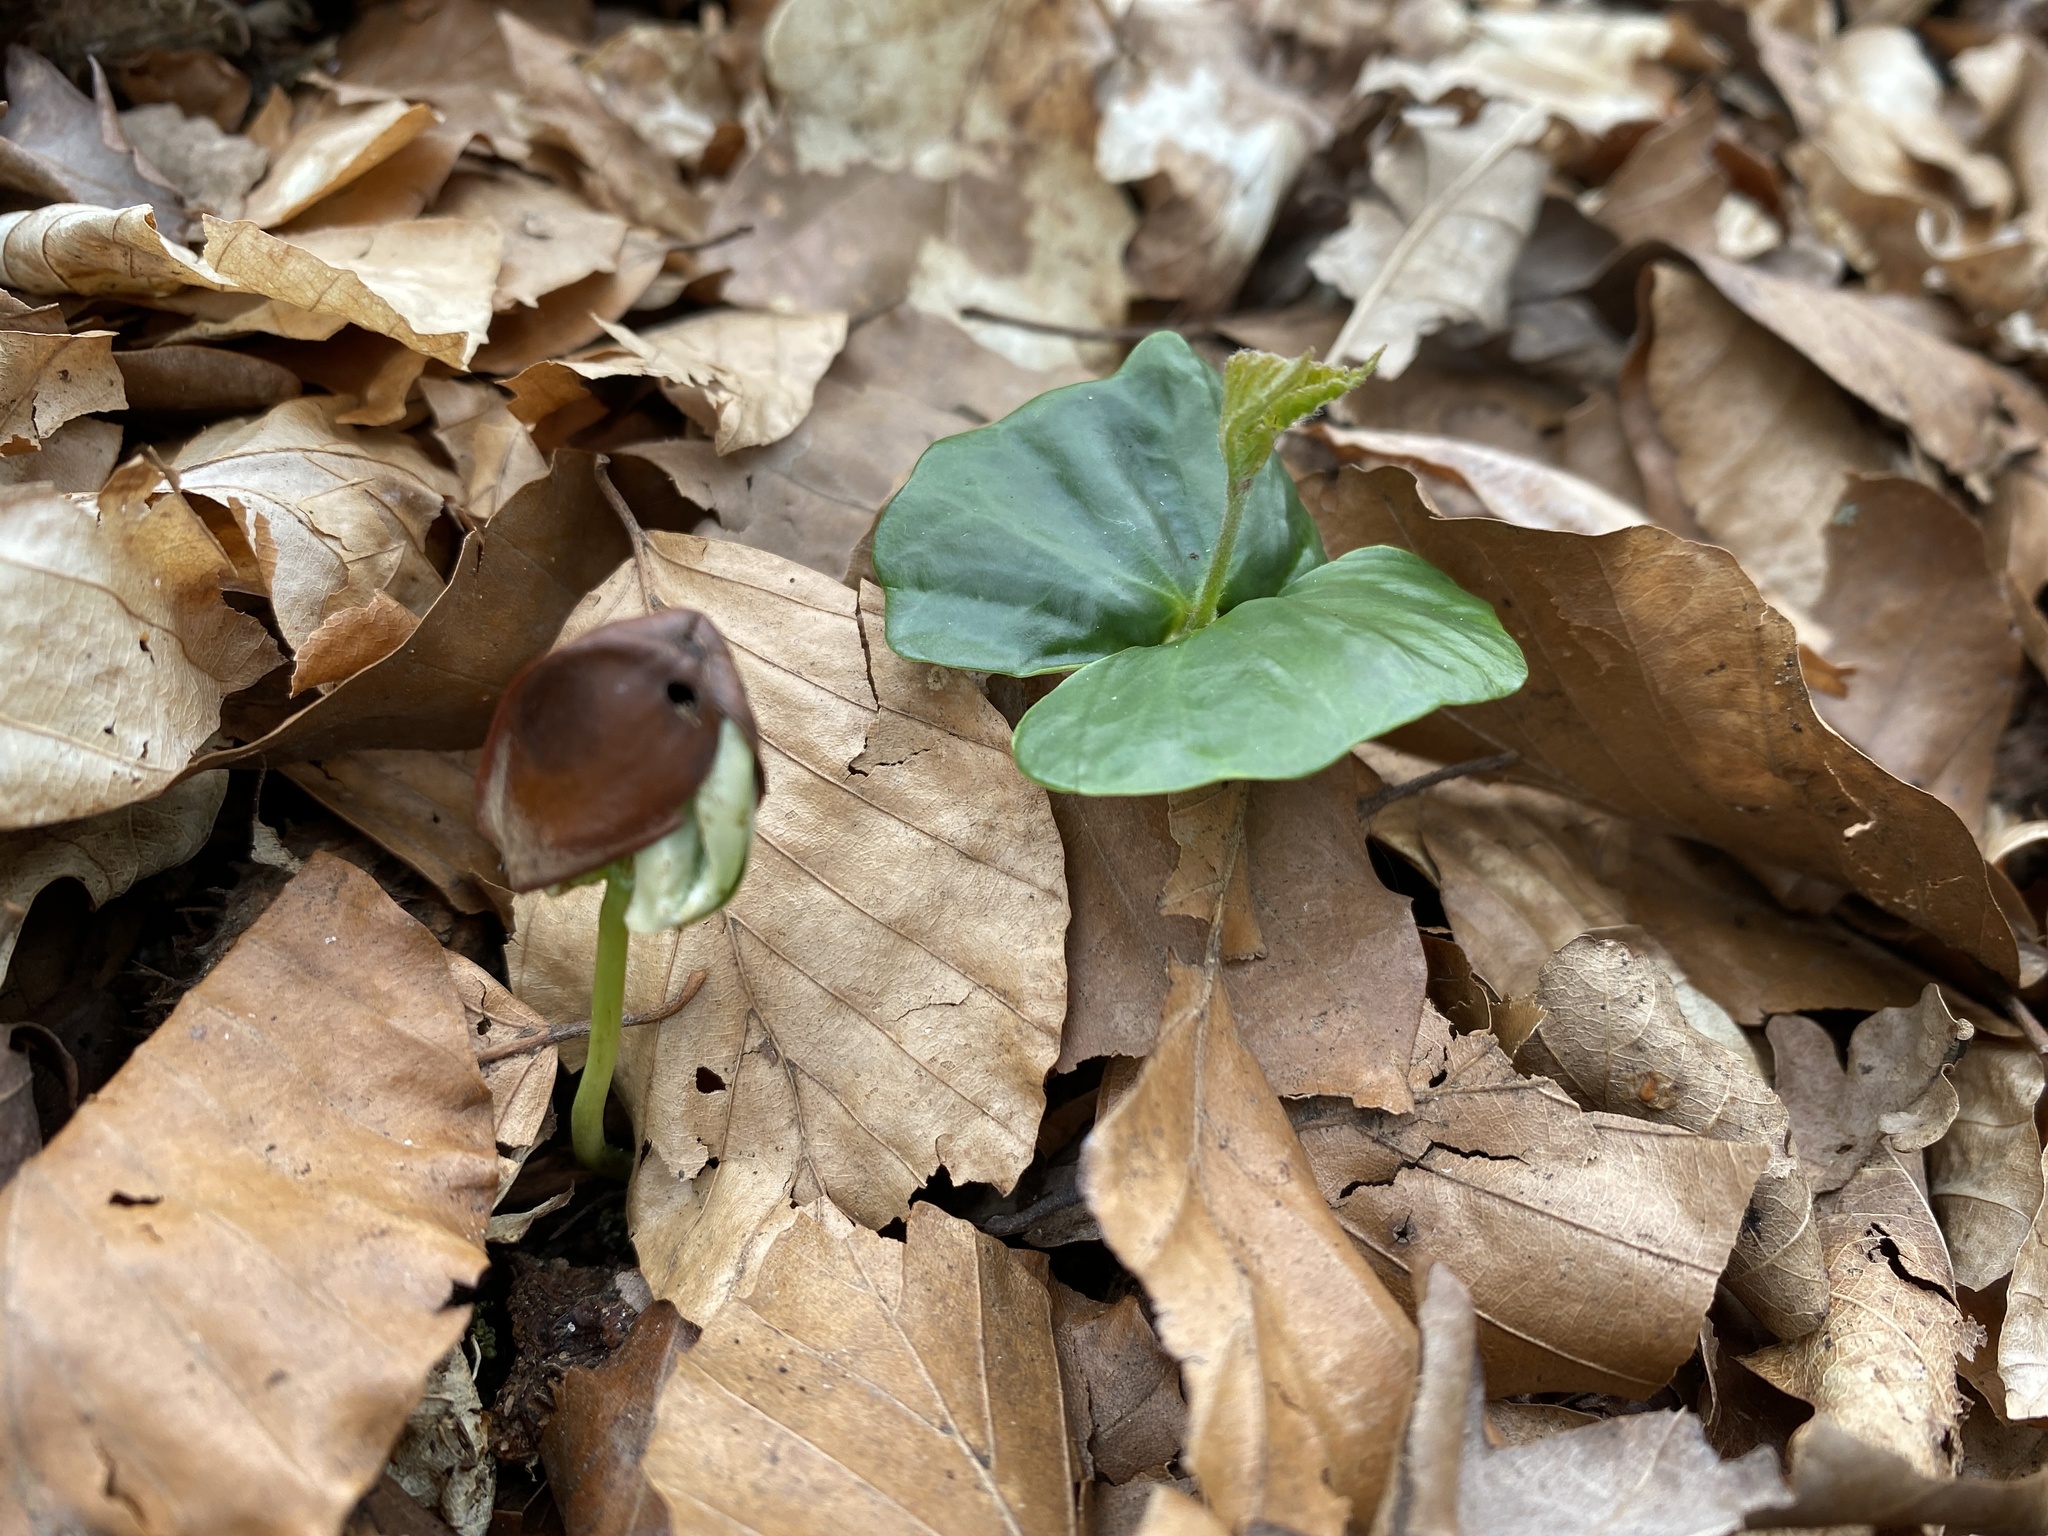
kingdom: Plantae
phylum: Tracheophyta
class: Magnoliopsida
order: Fagales
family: Fagaceae
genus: Fagus
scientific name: Fagus sylvatica
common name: Beech
